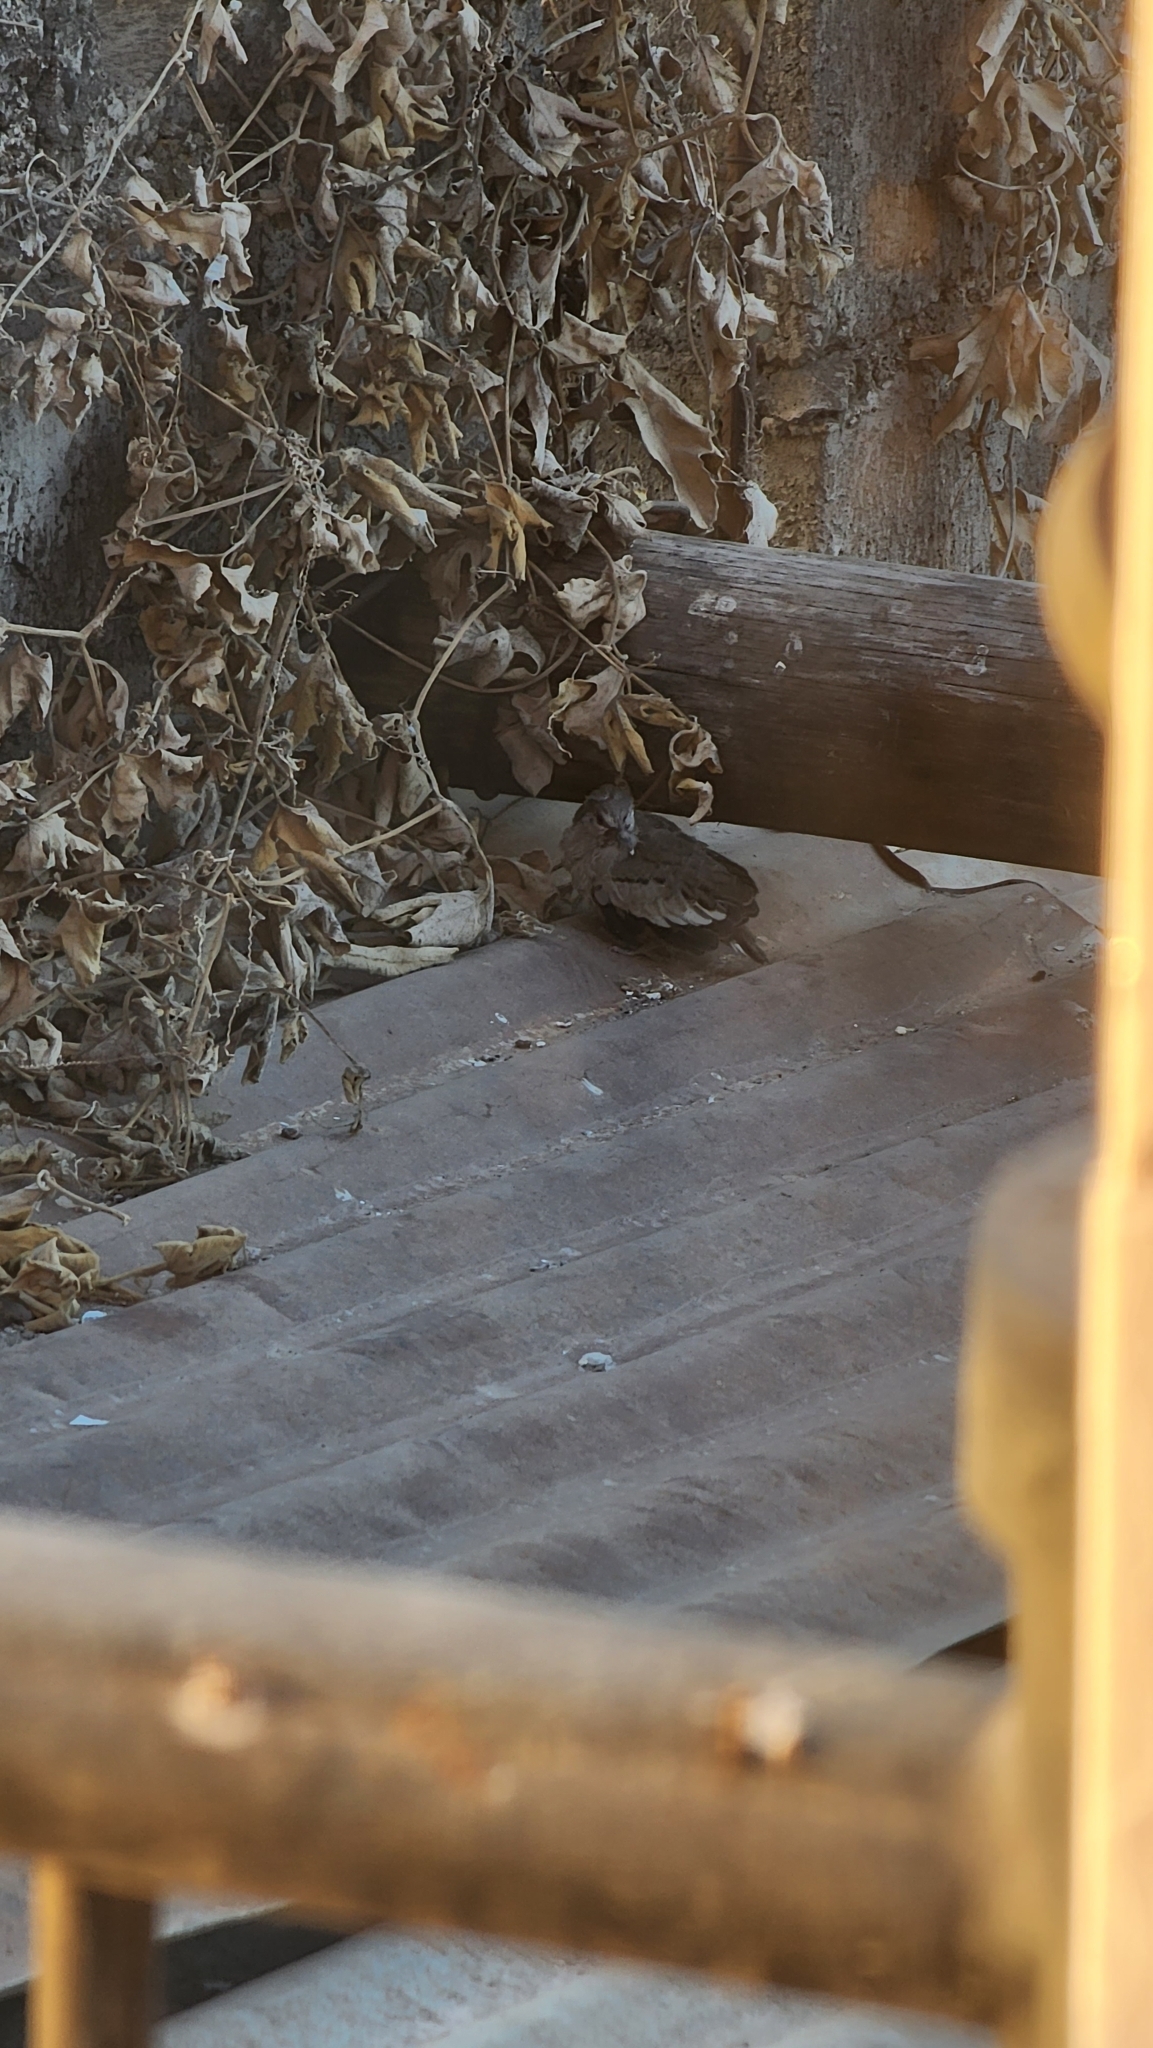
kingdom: Animalia
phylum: Chordata
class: Aves
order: Columbiformes
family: Columbidae
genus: Columbina
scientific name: Columbina picui
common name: Picui ground dove
